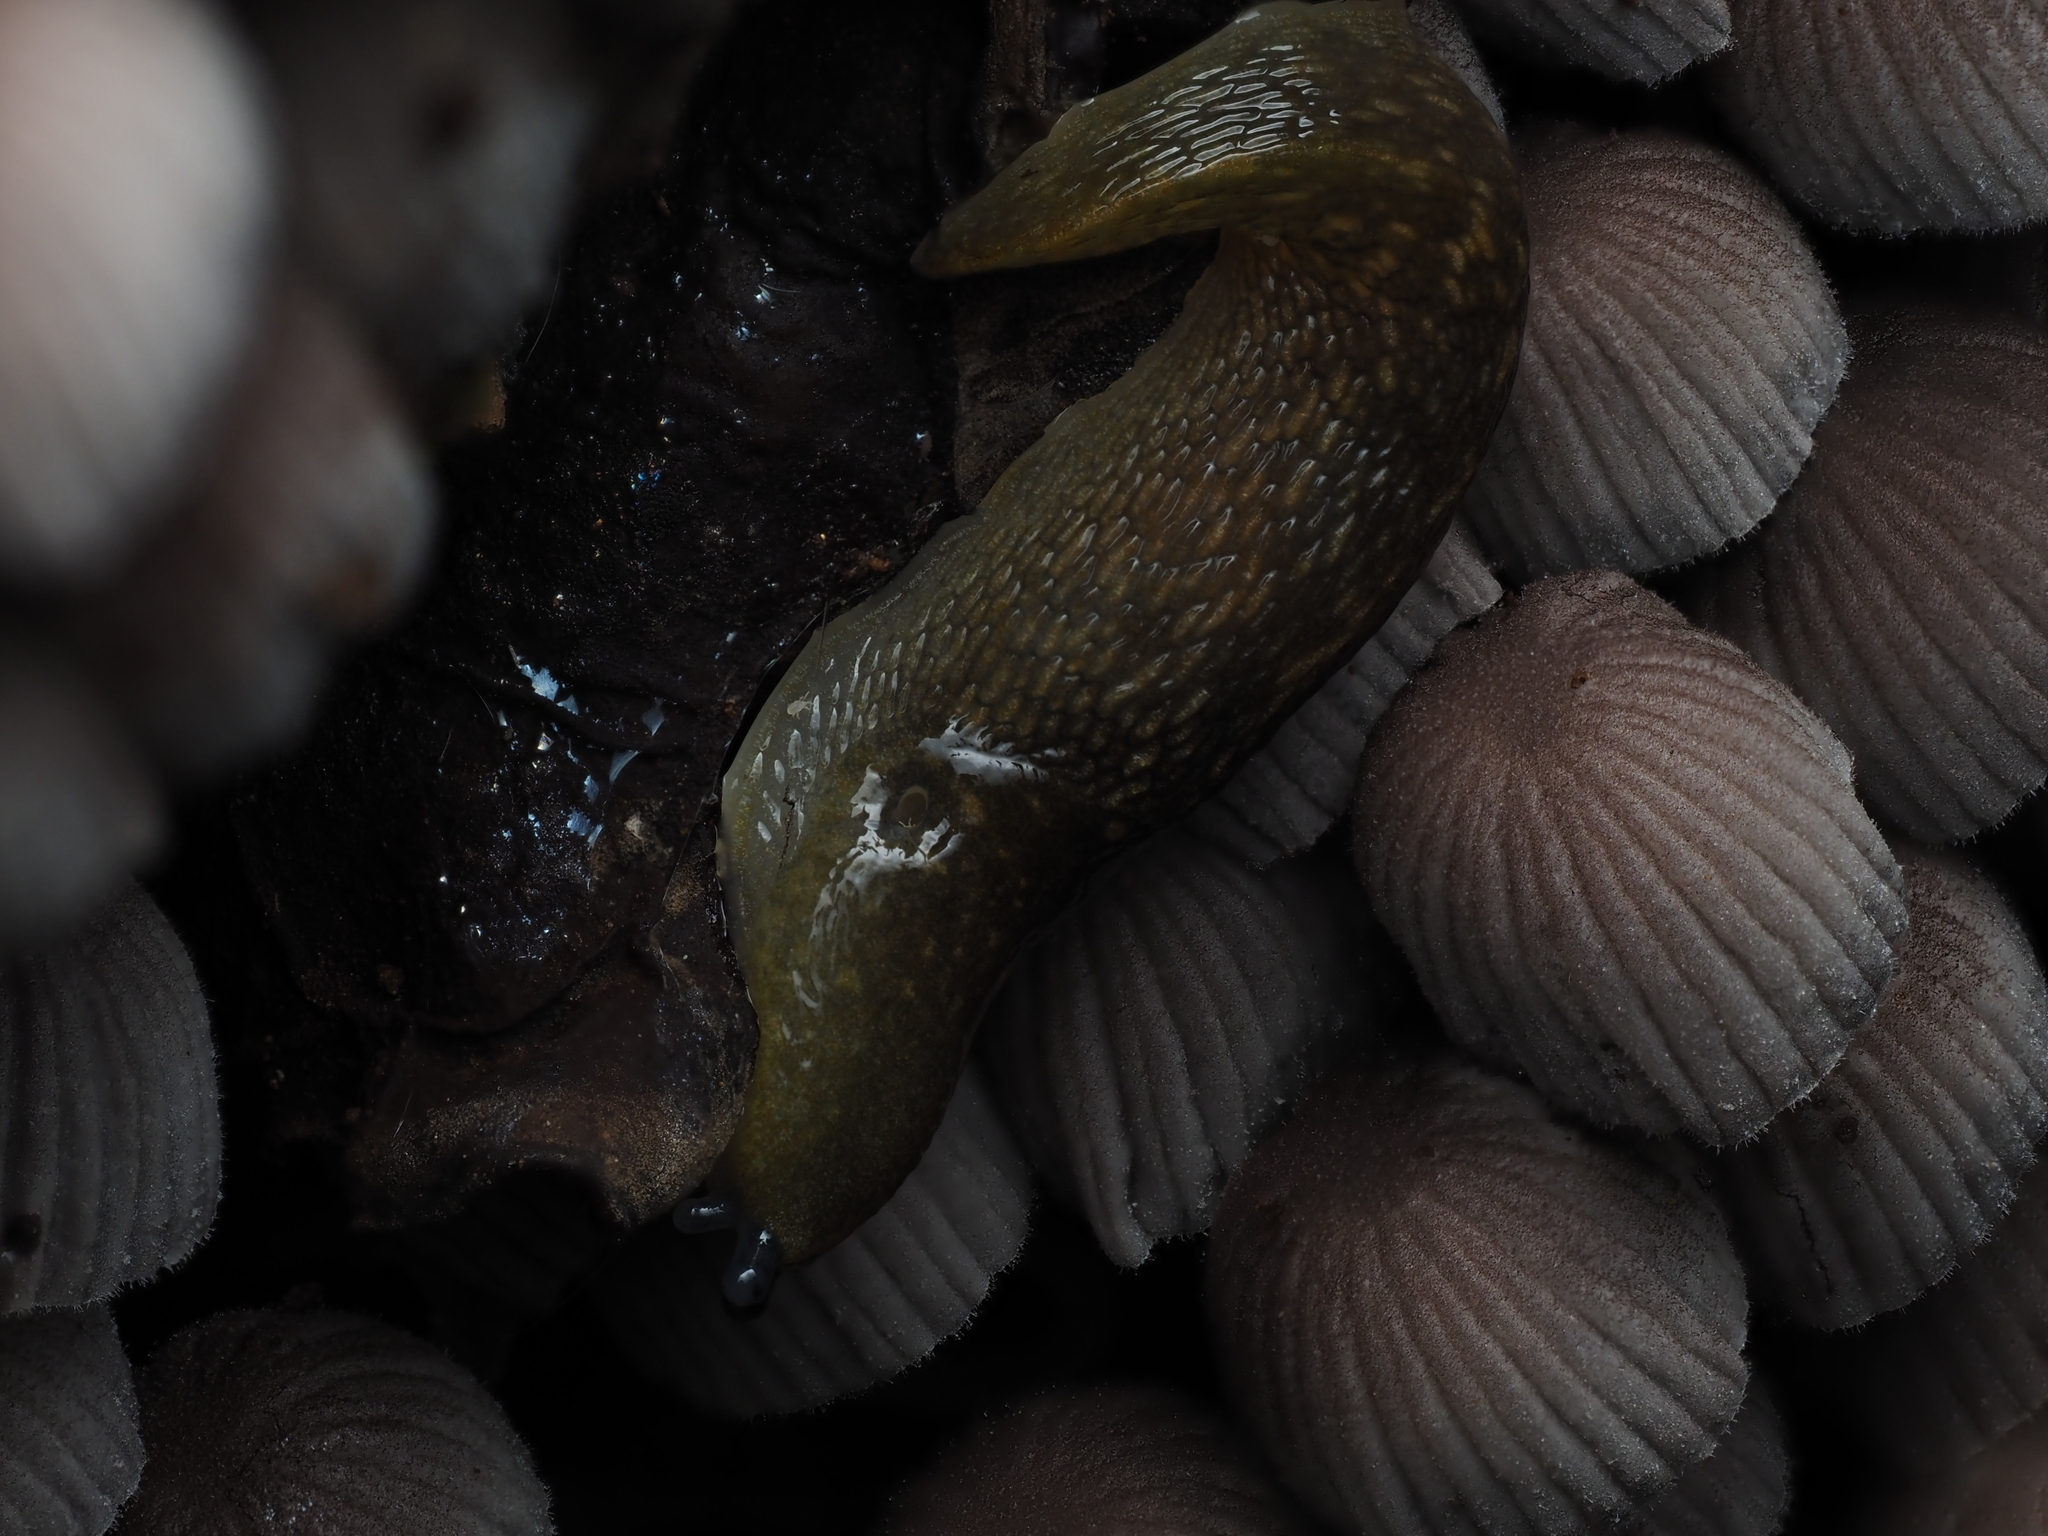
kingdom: Animalia
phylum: Mollusca
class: Gastropoda
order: Stylommatophora
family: Limacidae
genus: Limacus
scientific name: Limacus flavus
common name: Yellow gardenslug
